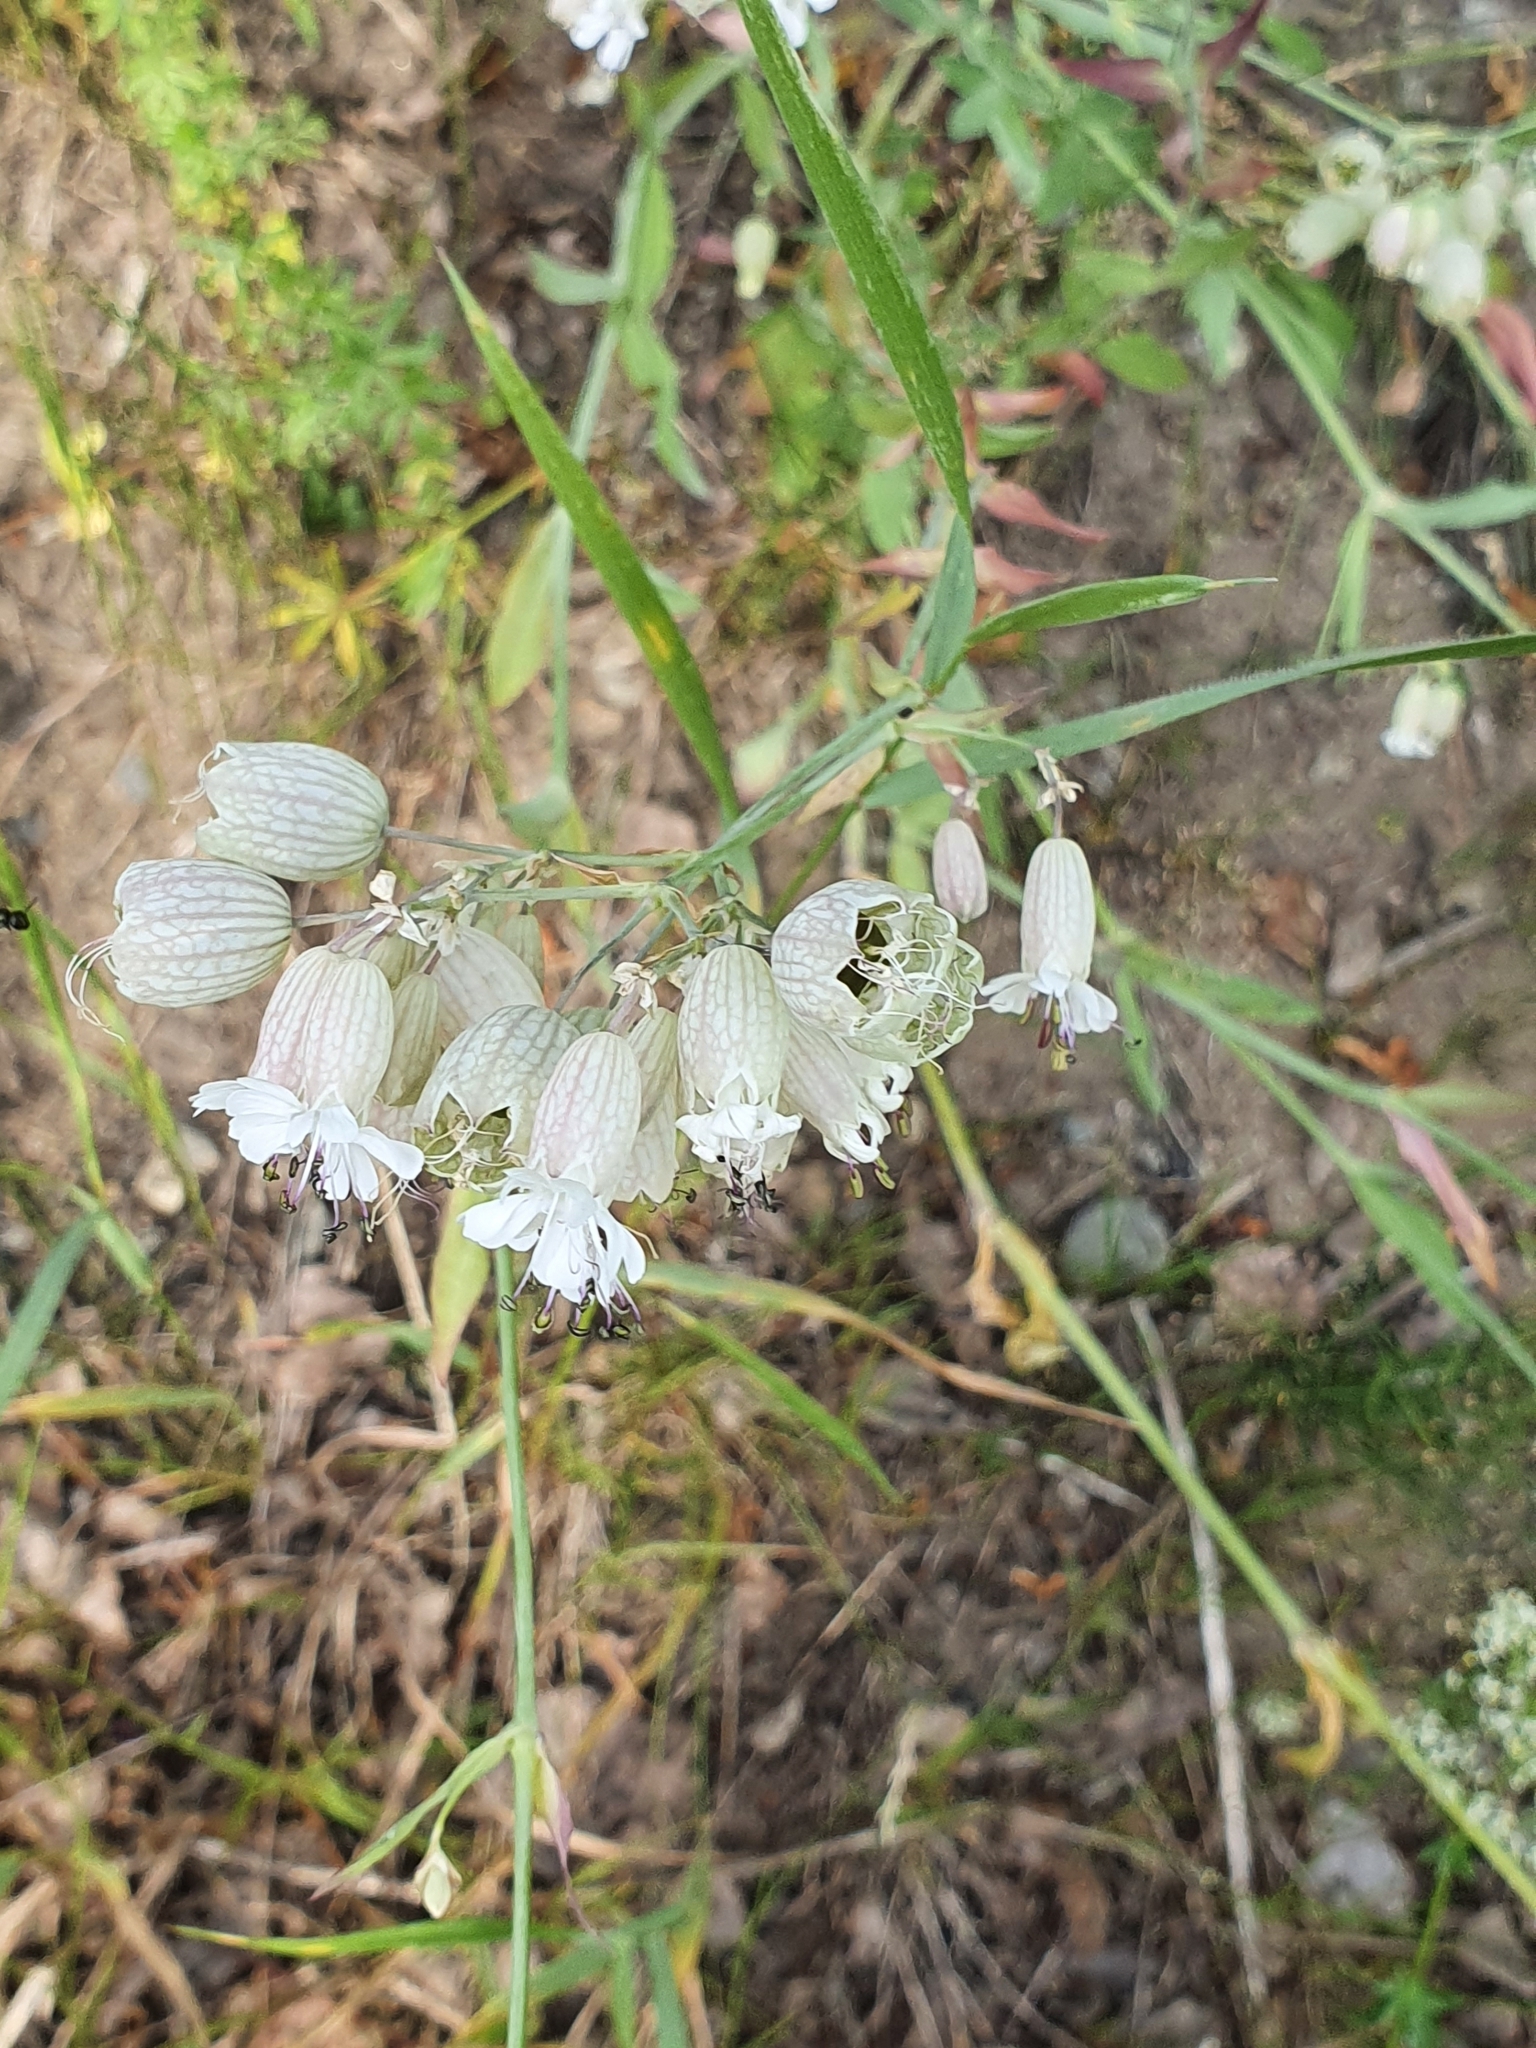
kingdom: Plantae
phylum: Tracheophyta
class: Magnoliopsida
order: Caryophyllales
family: Caryophyllaceae
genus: Silene
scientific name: Silene vulgaris
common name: Bladder campion
